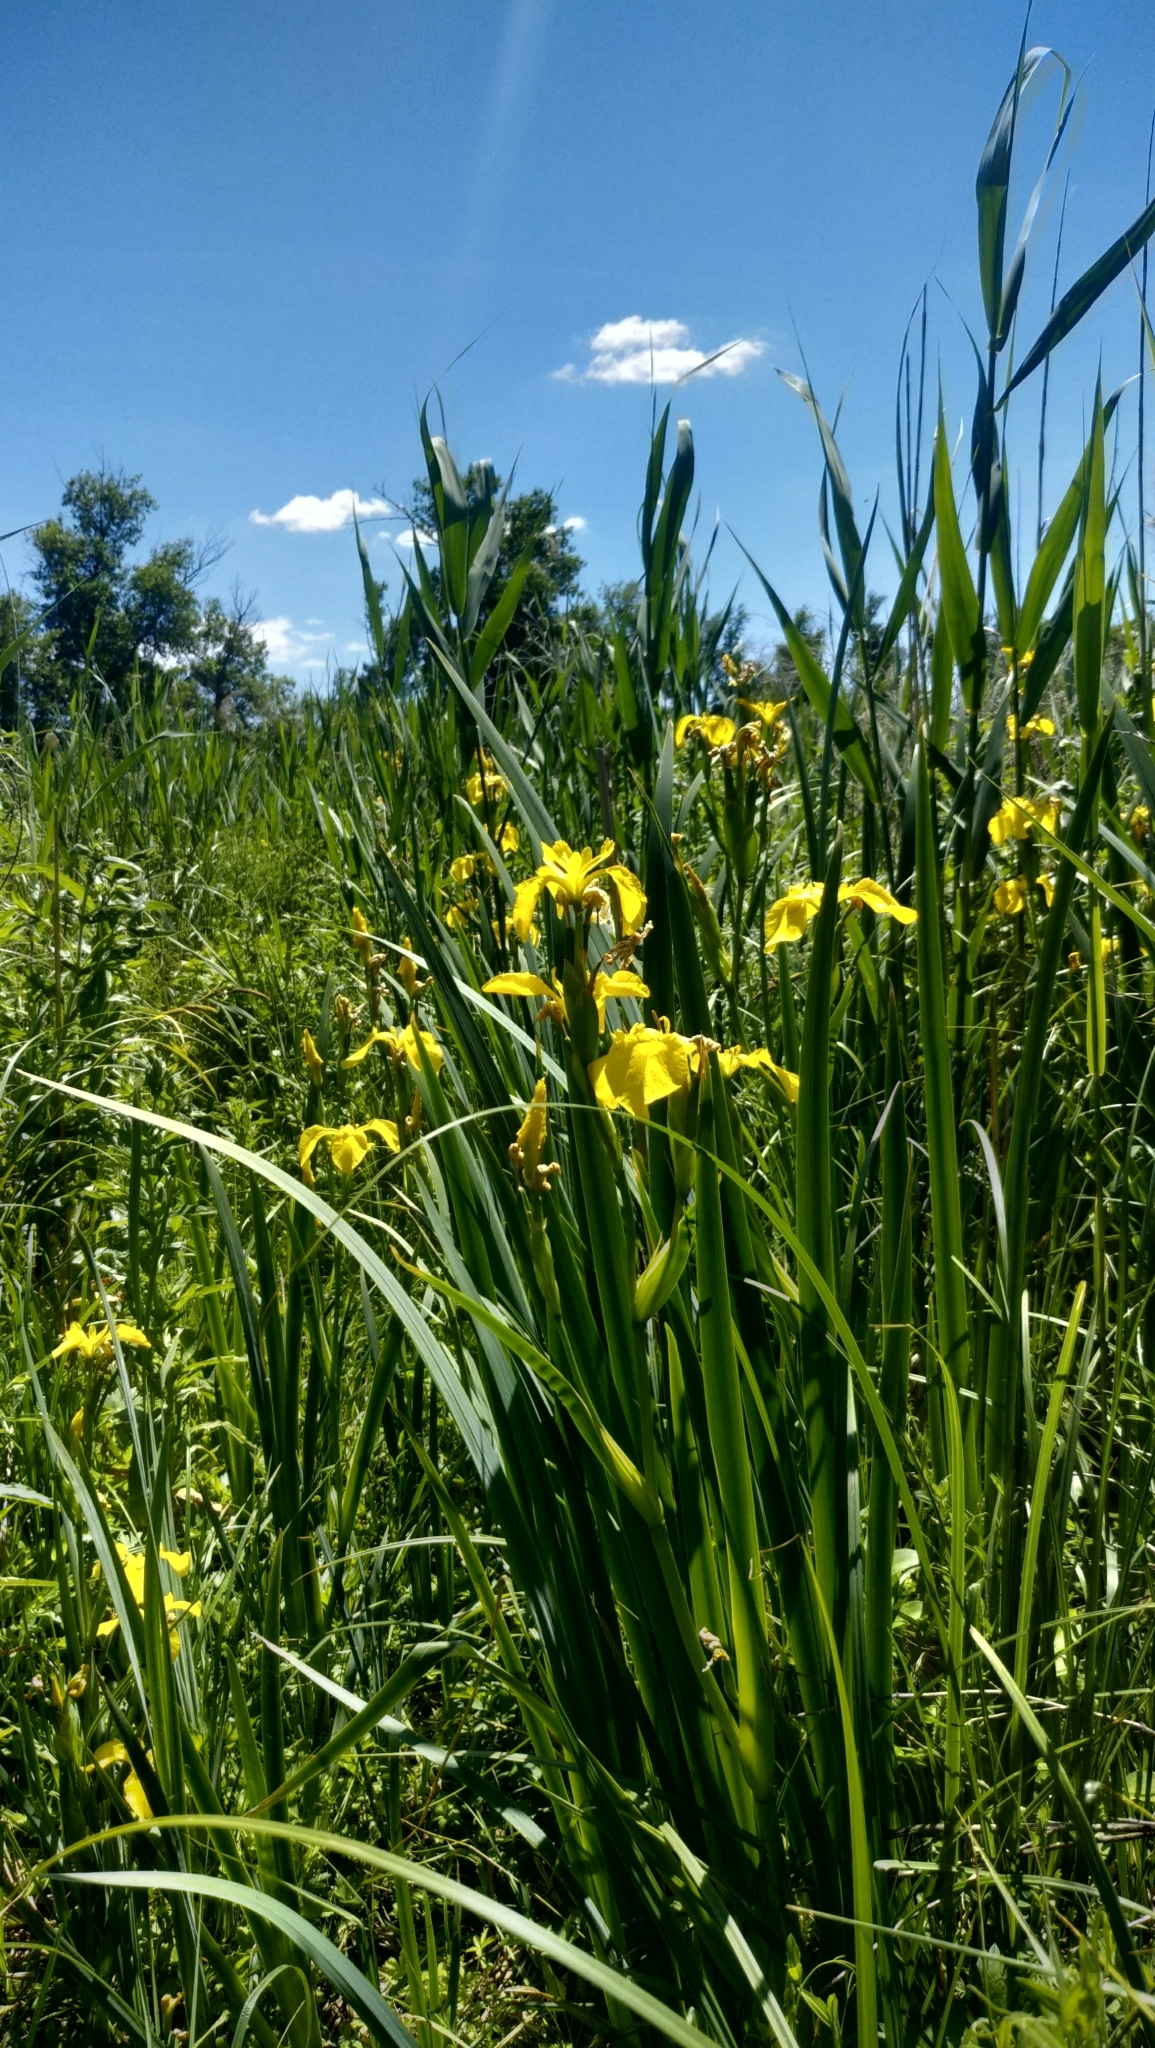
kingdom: Plantae
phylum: Tracheophyta
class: Liliopsida
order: Asparagales
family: Iridaceae
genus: Iris
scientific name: Iris pseudacorus
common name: Yellow flag
